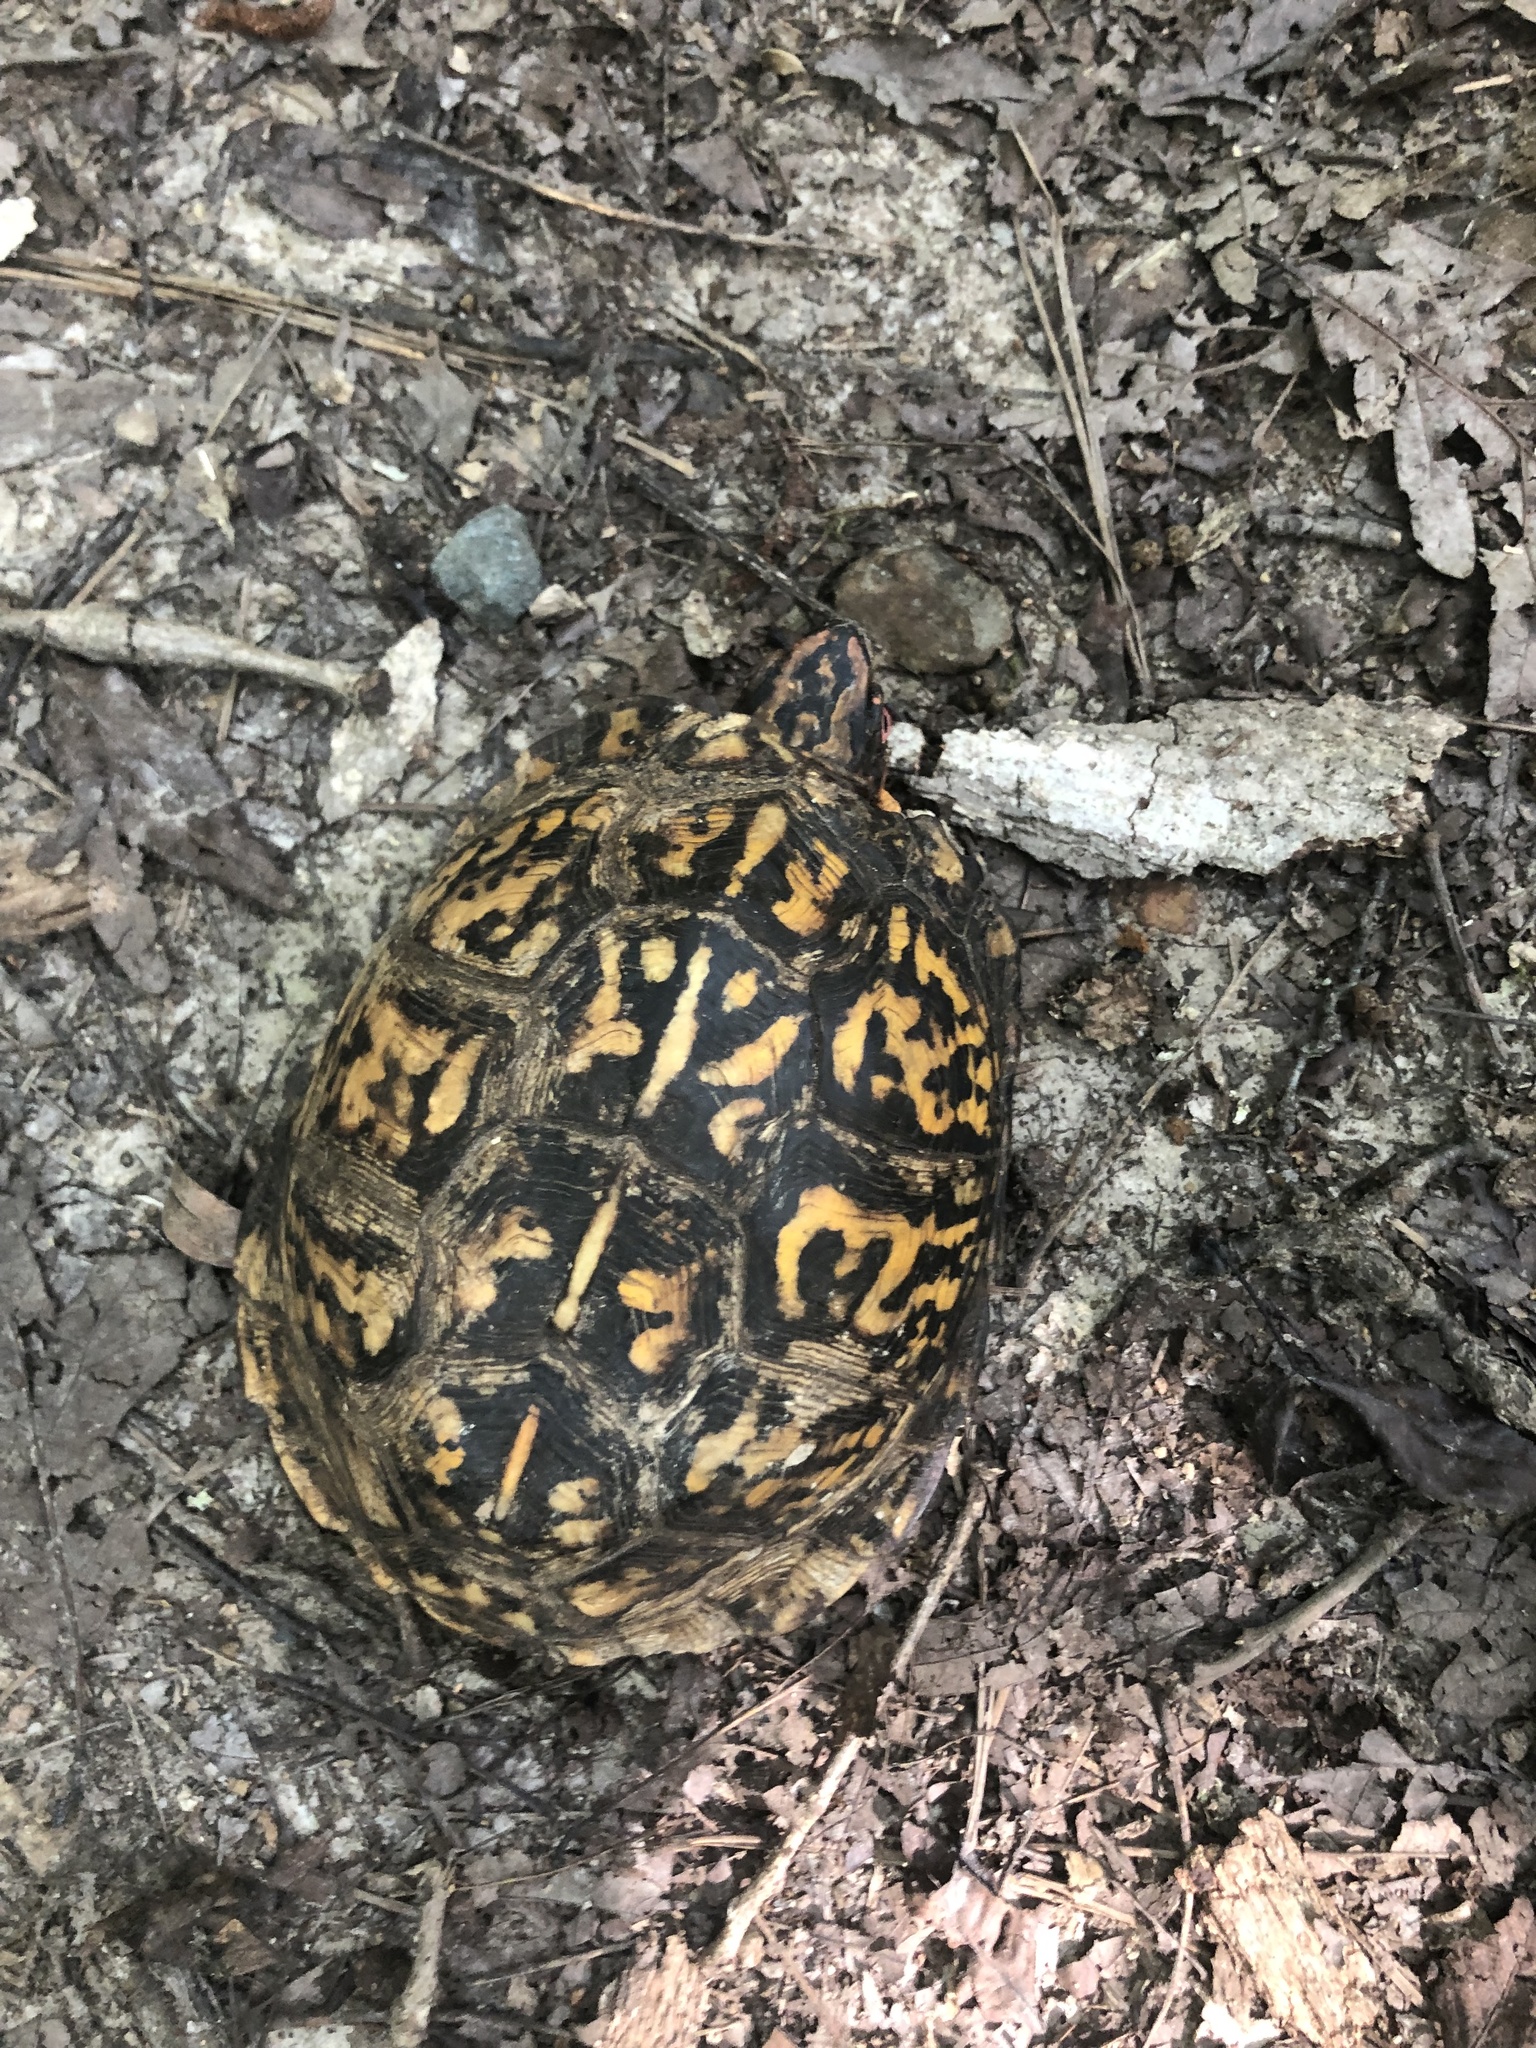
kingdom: Animalia
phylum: Chordata
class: Testudines
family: Emydidae
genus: Terrapene
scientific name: Terrapene carolina
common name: Common box turtle
